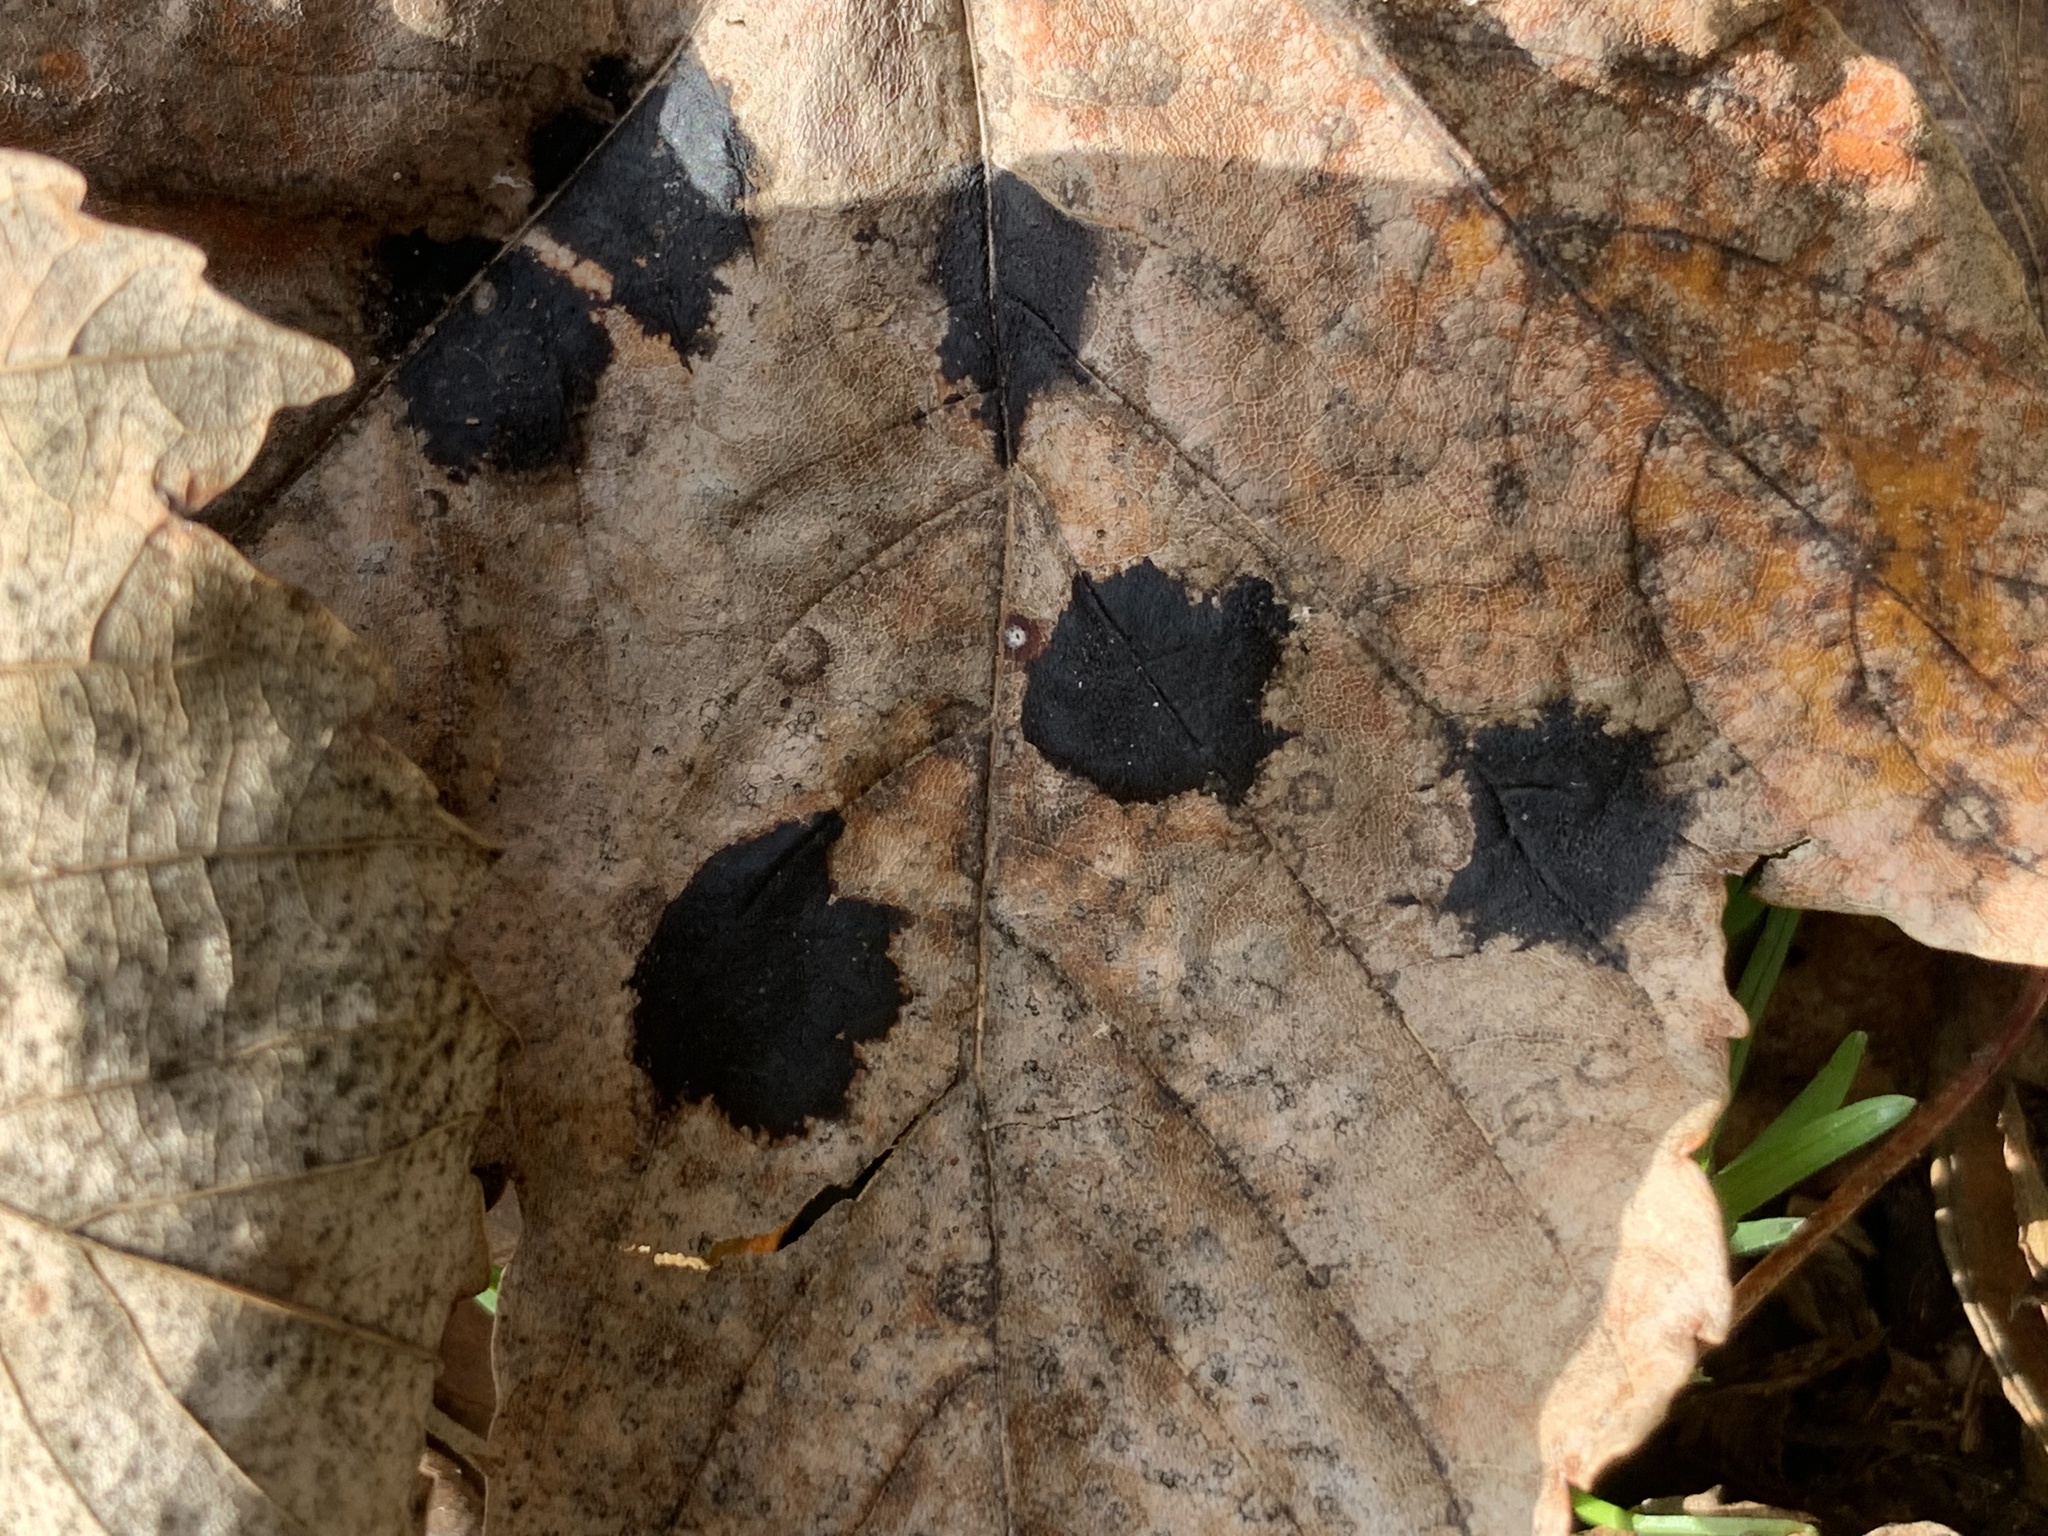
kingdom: Fungi
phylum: Ascomycota
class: Leotiomycetes
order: Rhytismatales
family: Rhytismataceae
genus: Rhytisma
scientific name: Rhytisma acerinum
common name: European tar spot
